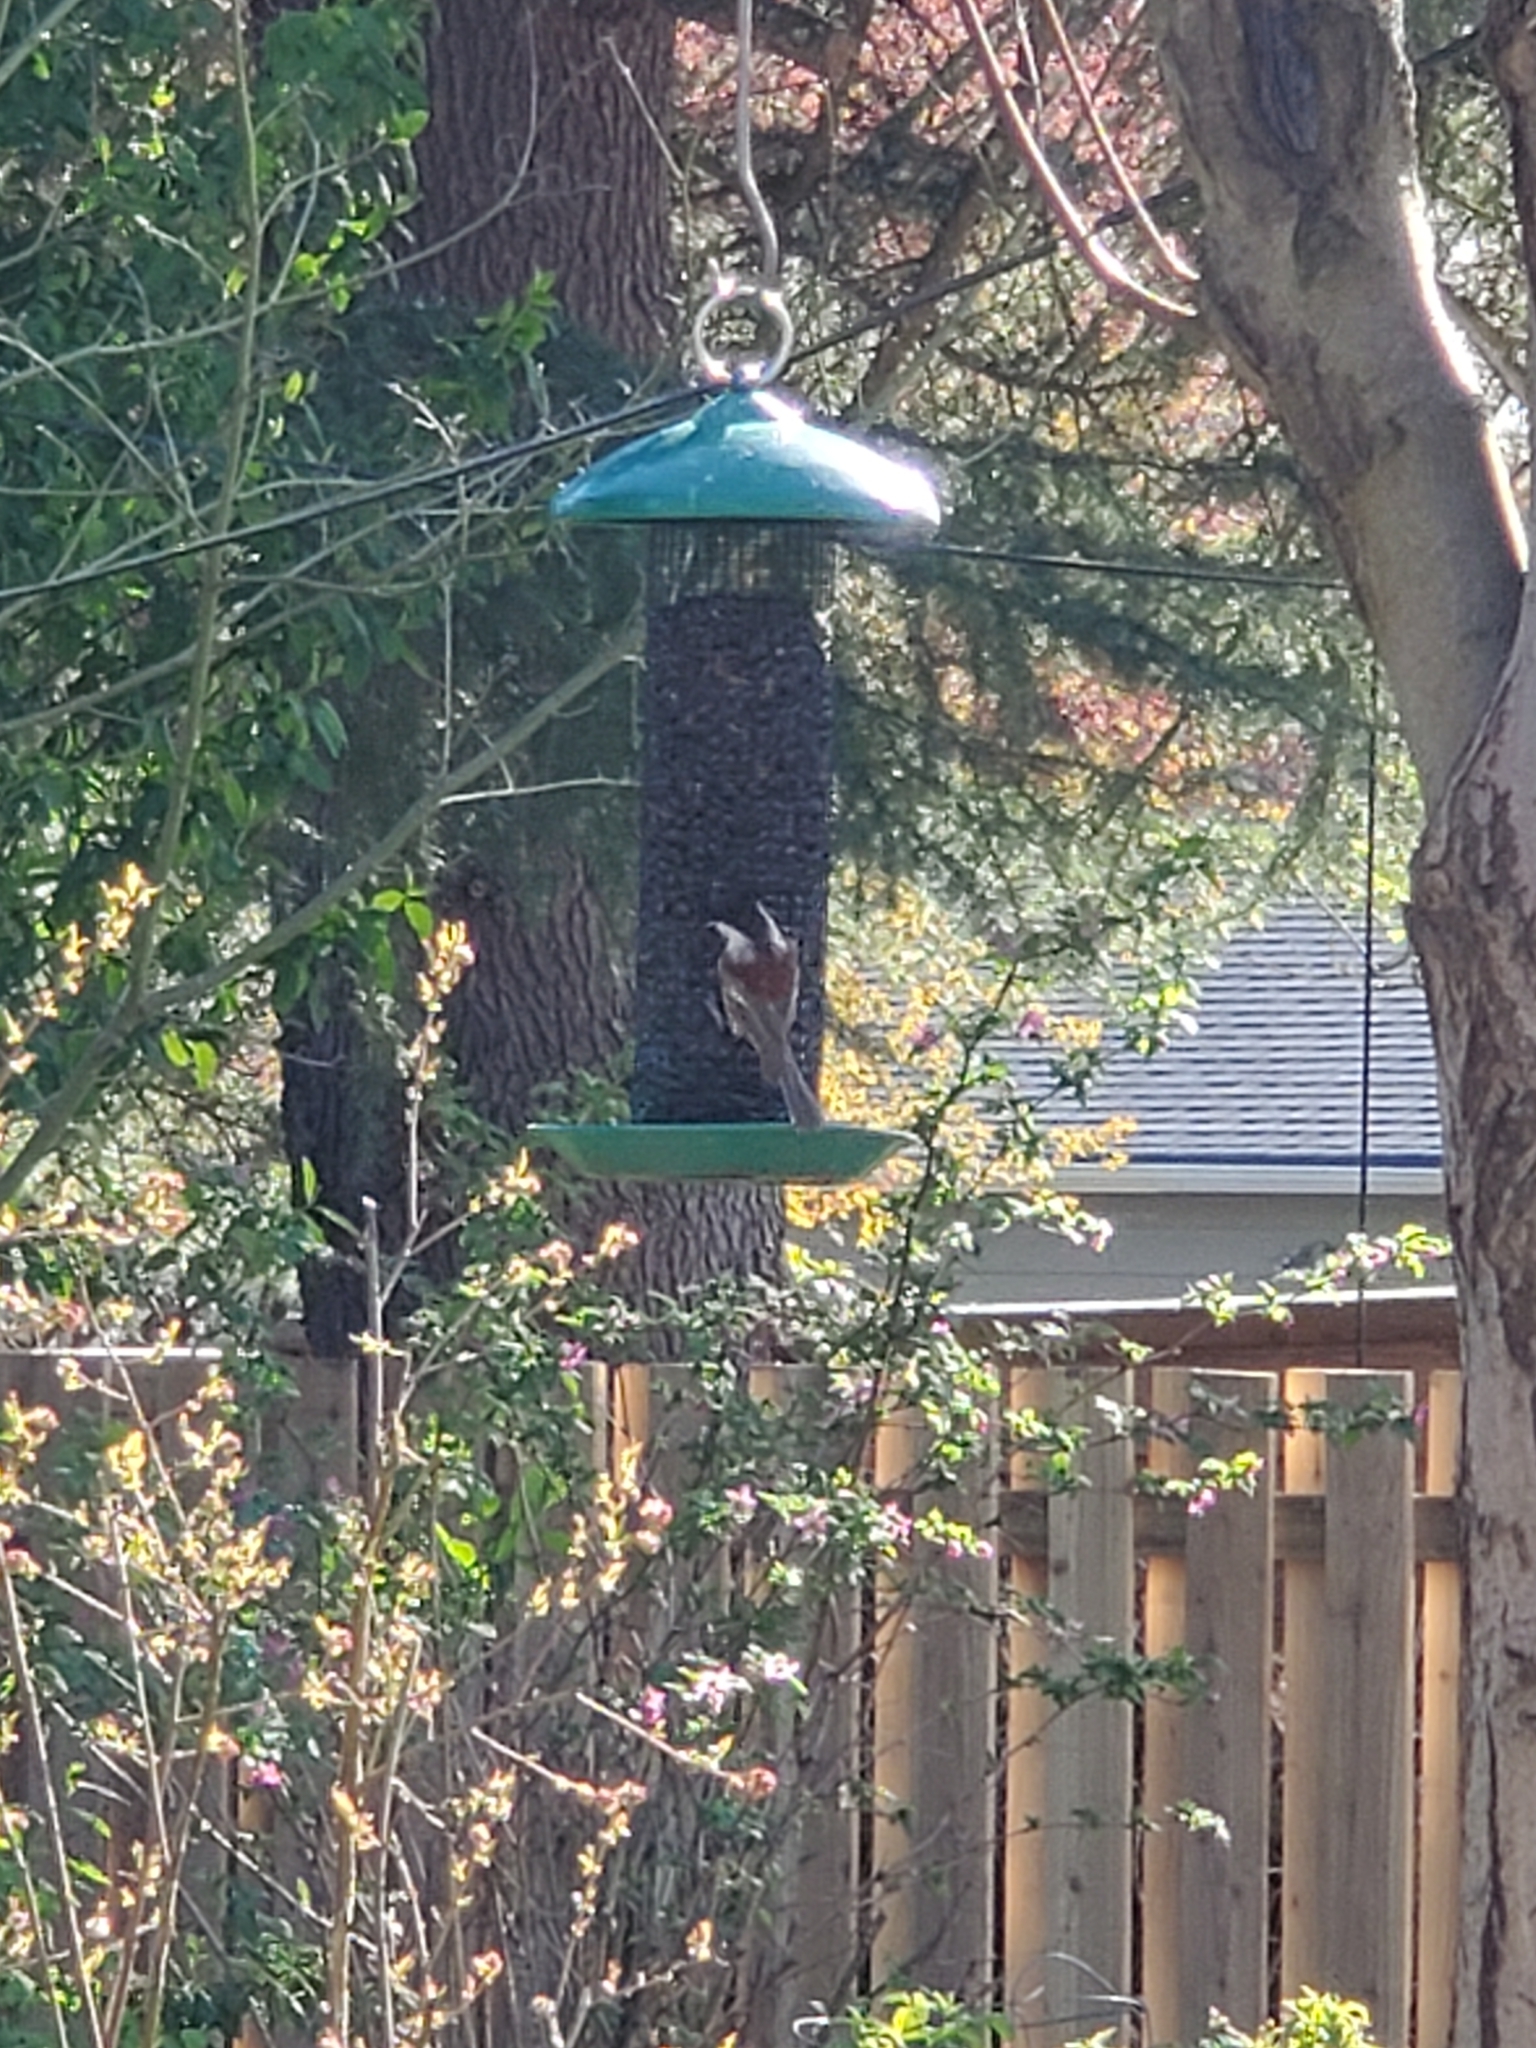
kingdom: Animalia
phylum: Chordata
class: Aves
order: Passeriformes
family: Paridae
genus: Poecile
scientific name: Poecile rufescens
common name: Chestnut-backed chickadee
